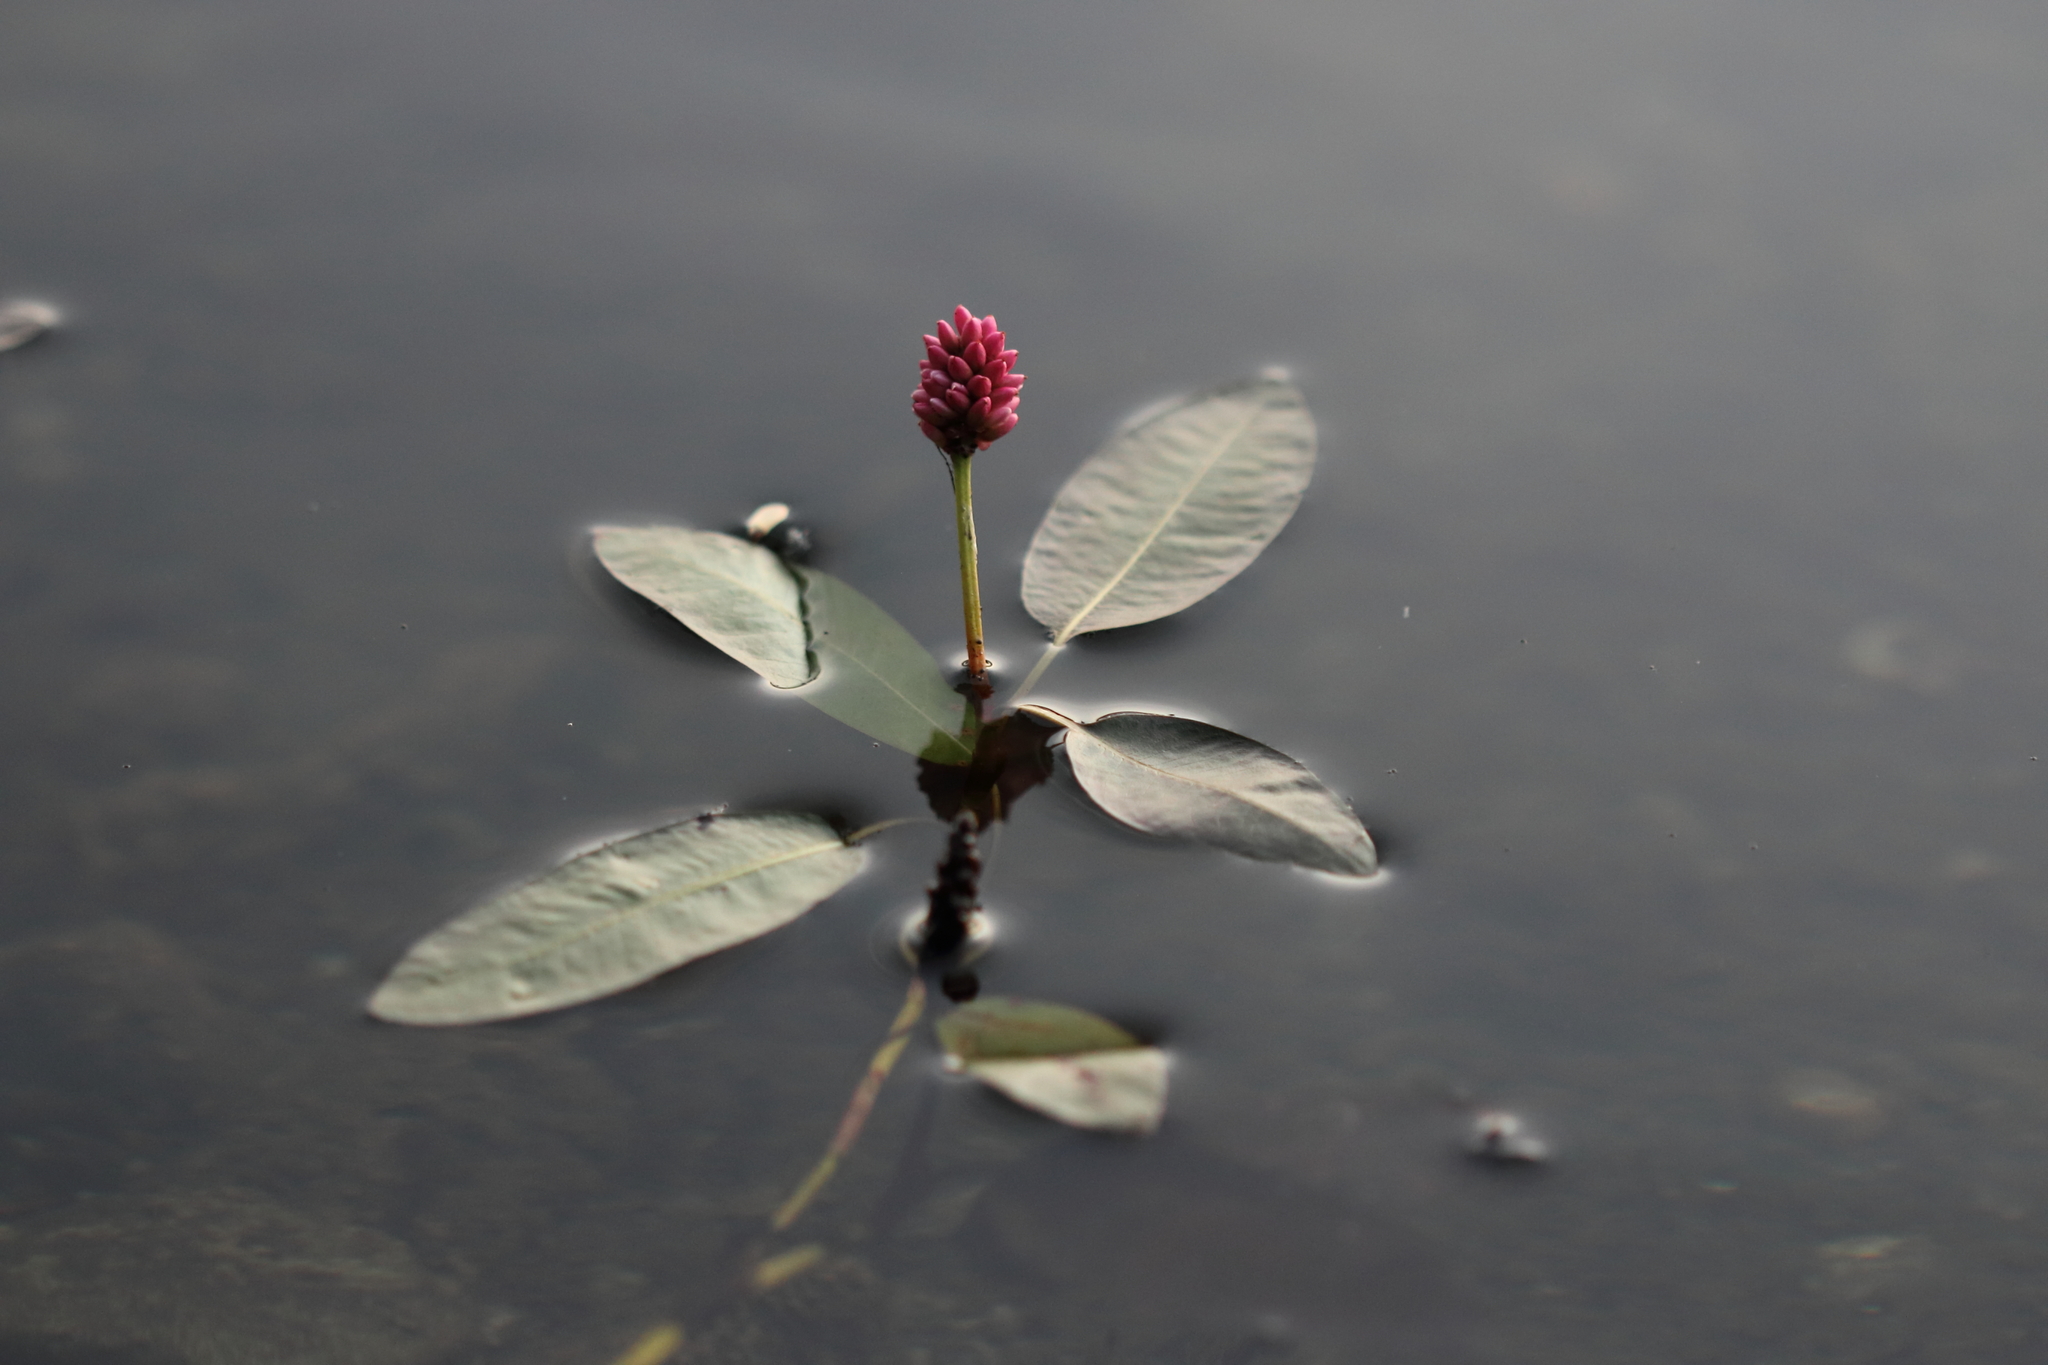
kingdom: Plantae
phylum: Tracheophyta
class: Magnoliopsida
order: Caryophyllales
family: Polygonaceae
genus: Persicaria
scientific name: Persicaria amphibia
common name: Amphibious bistort
